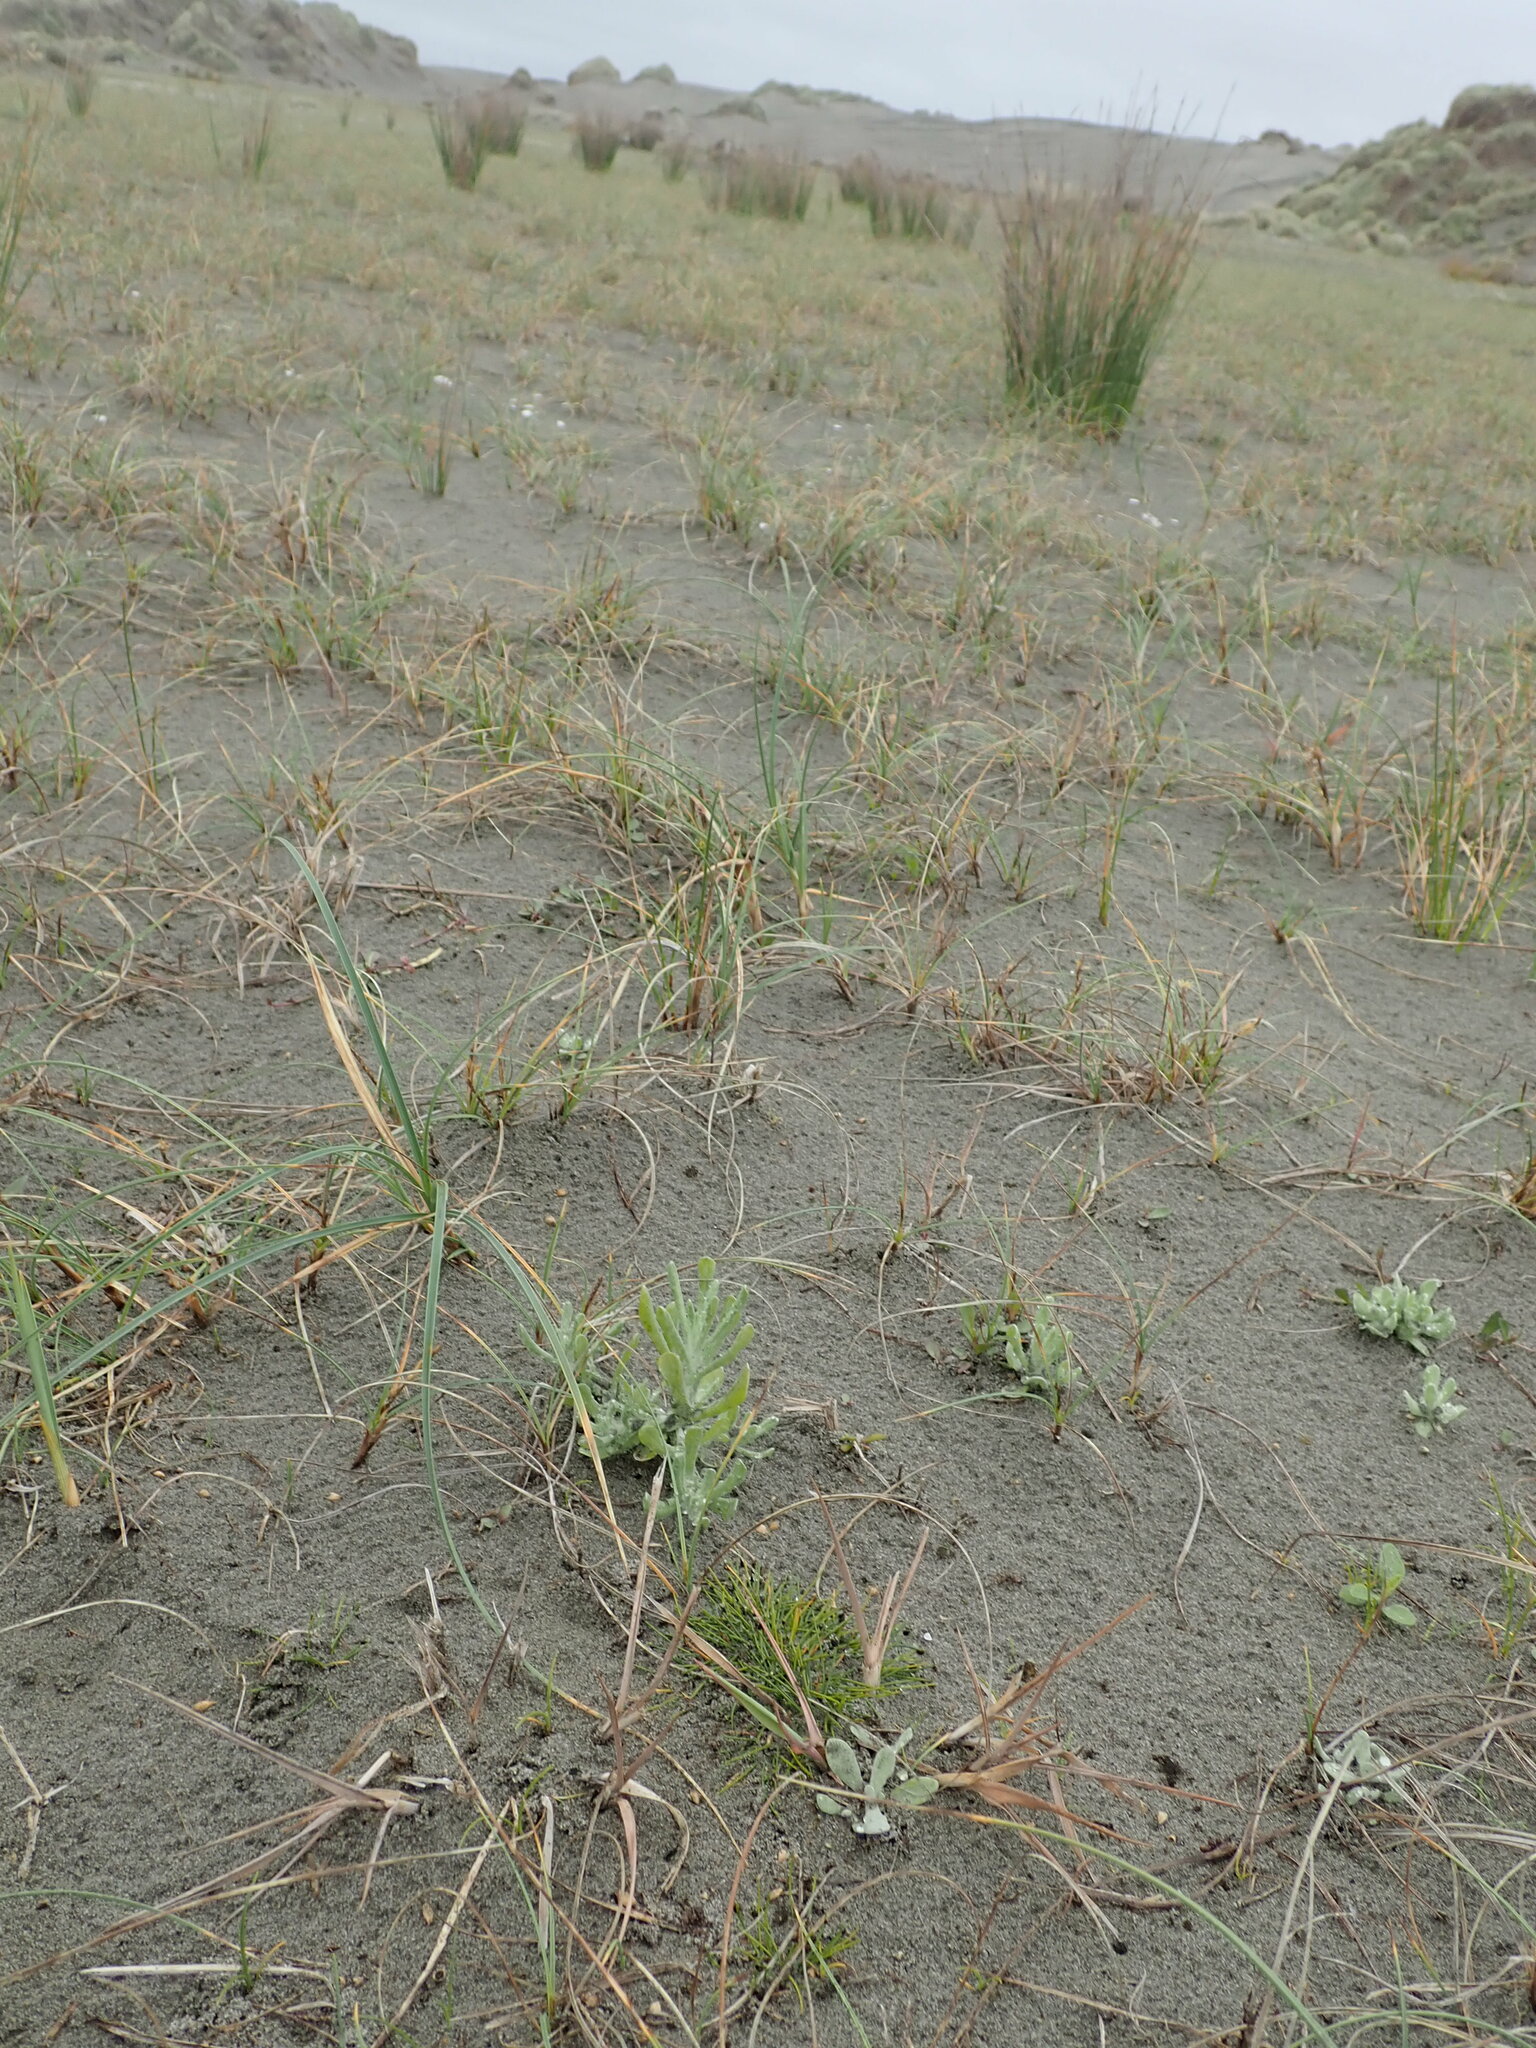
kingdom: Plantae
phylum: Tracheophyta
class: Liliopsida
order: Poales
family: Cyperaceae
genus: Isolepis
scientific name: Isolepis cernua
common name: Slender club-rush
